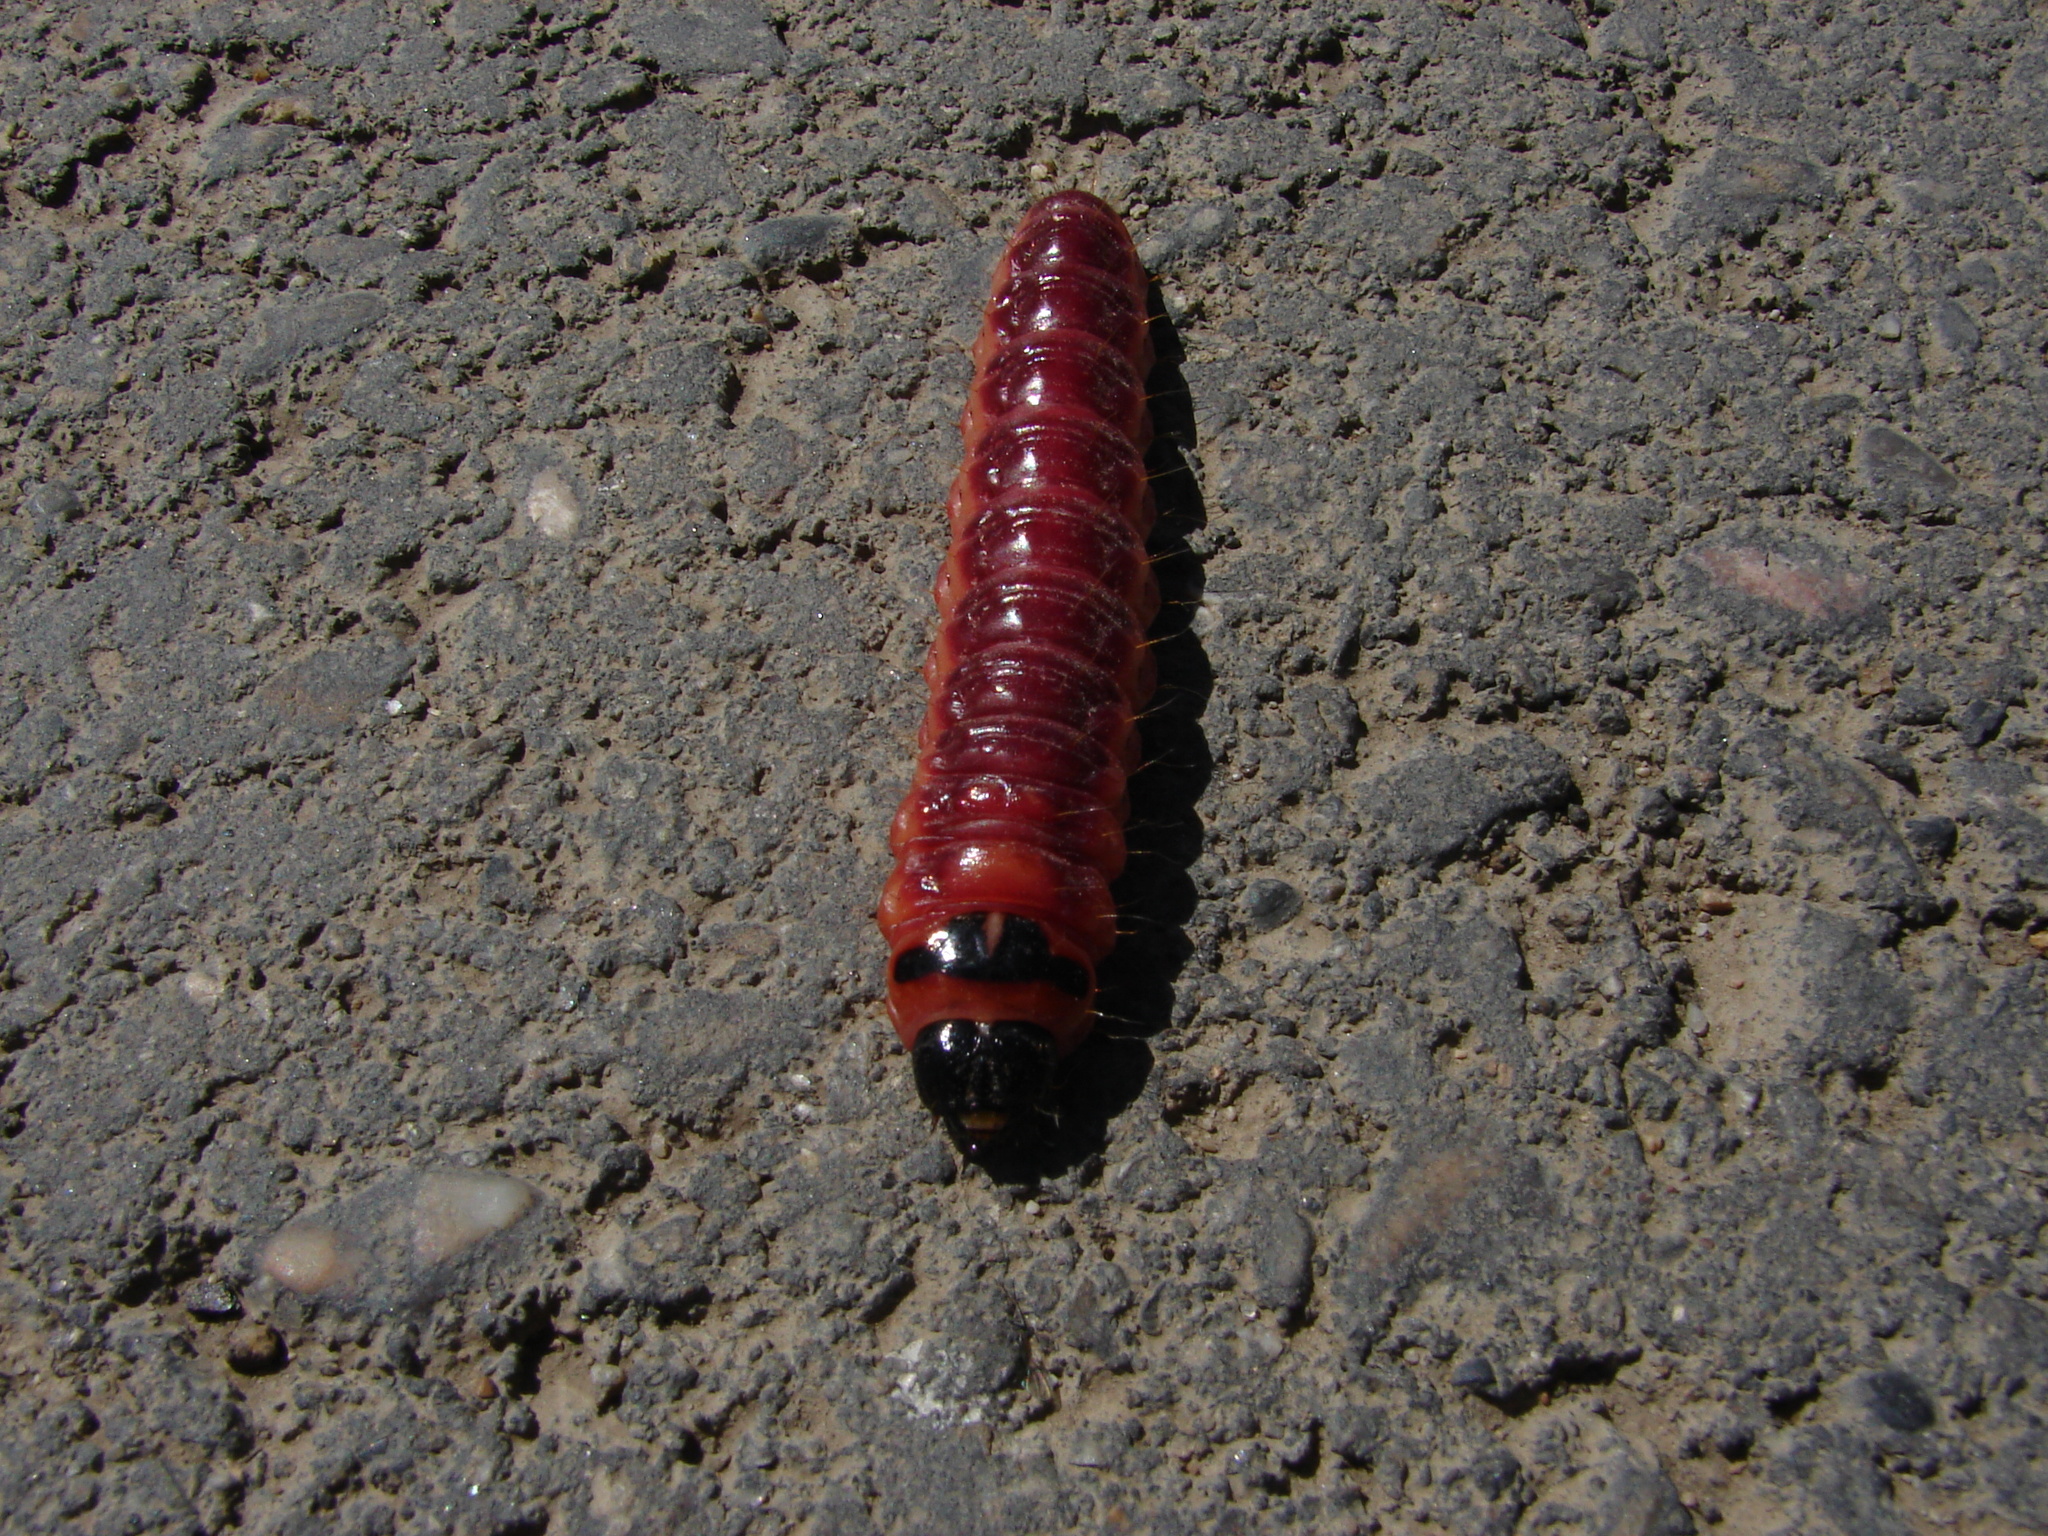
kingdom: Animalia
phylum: Arthropoda
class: Insecta
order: Lepidoptera
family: Cossidae
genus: Cossus
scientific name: Cossus cossus
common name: Goat moth
